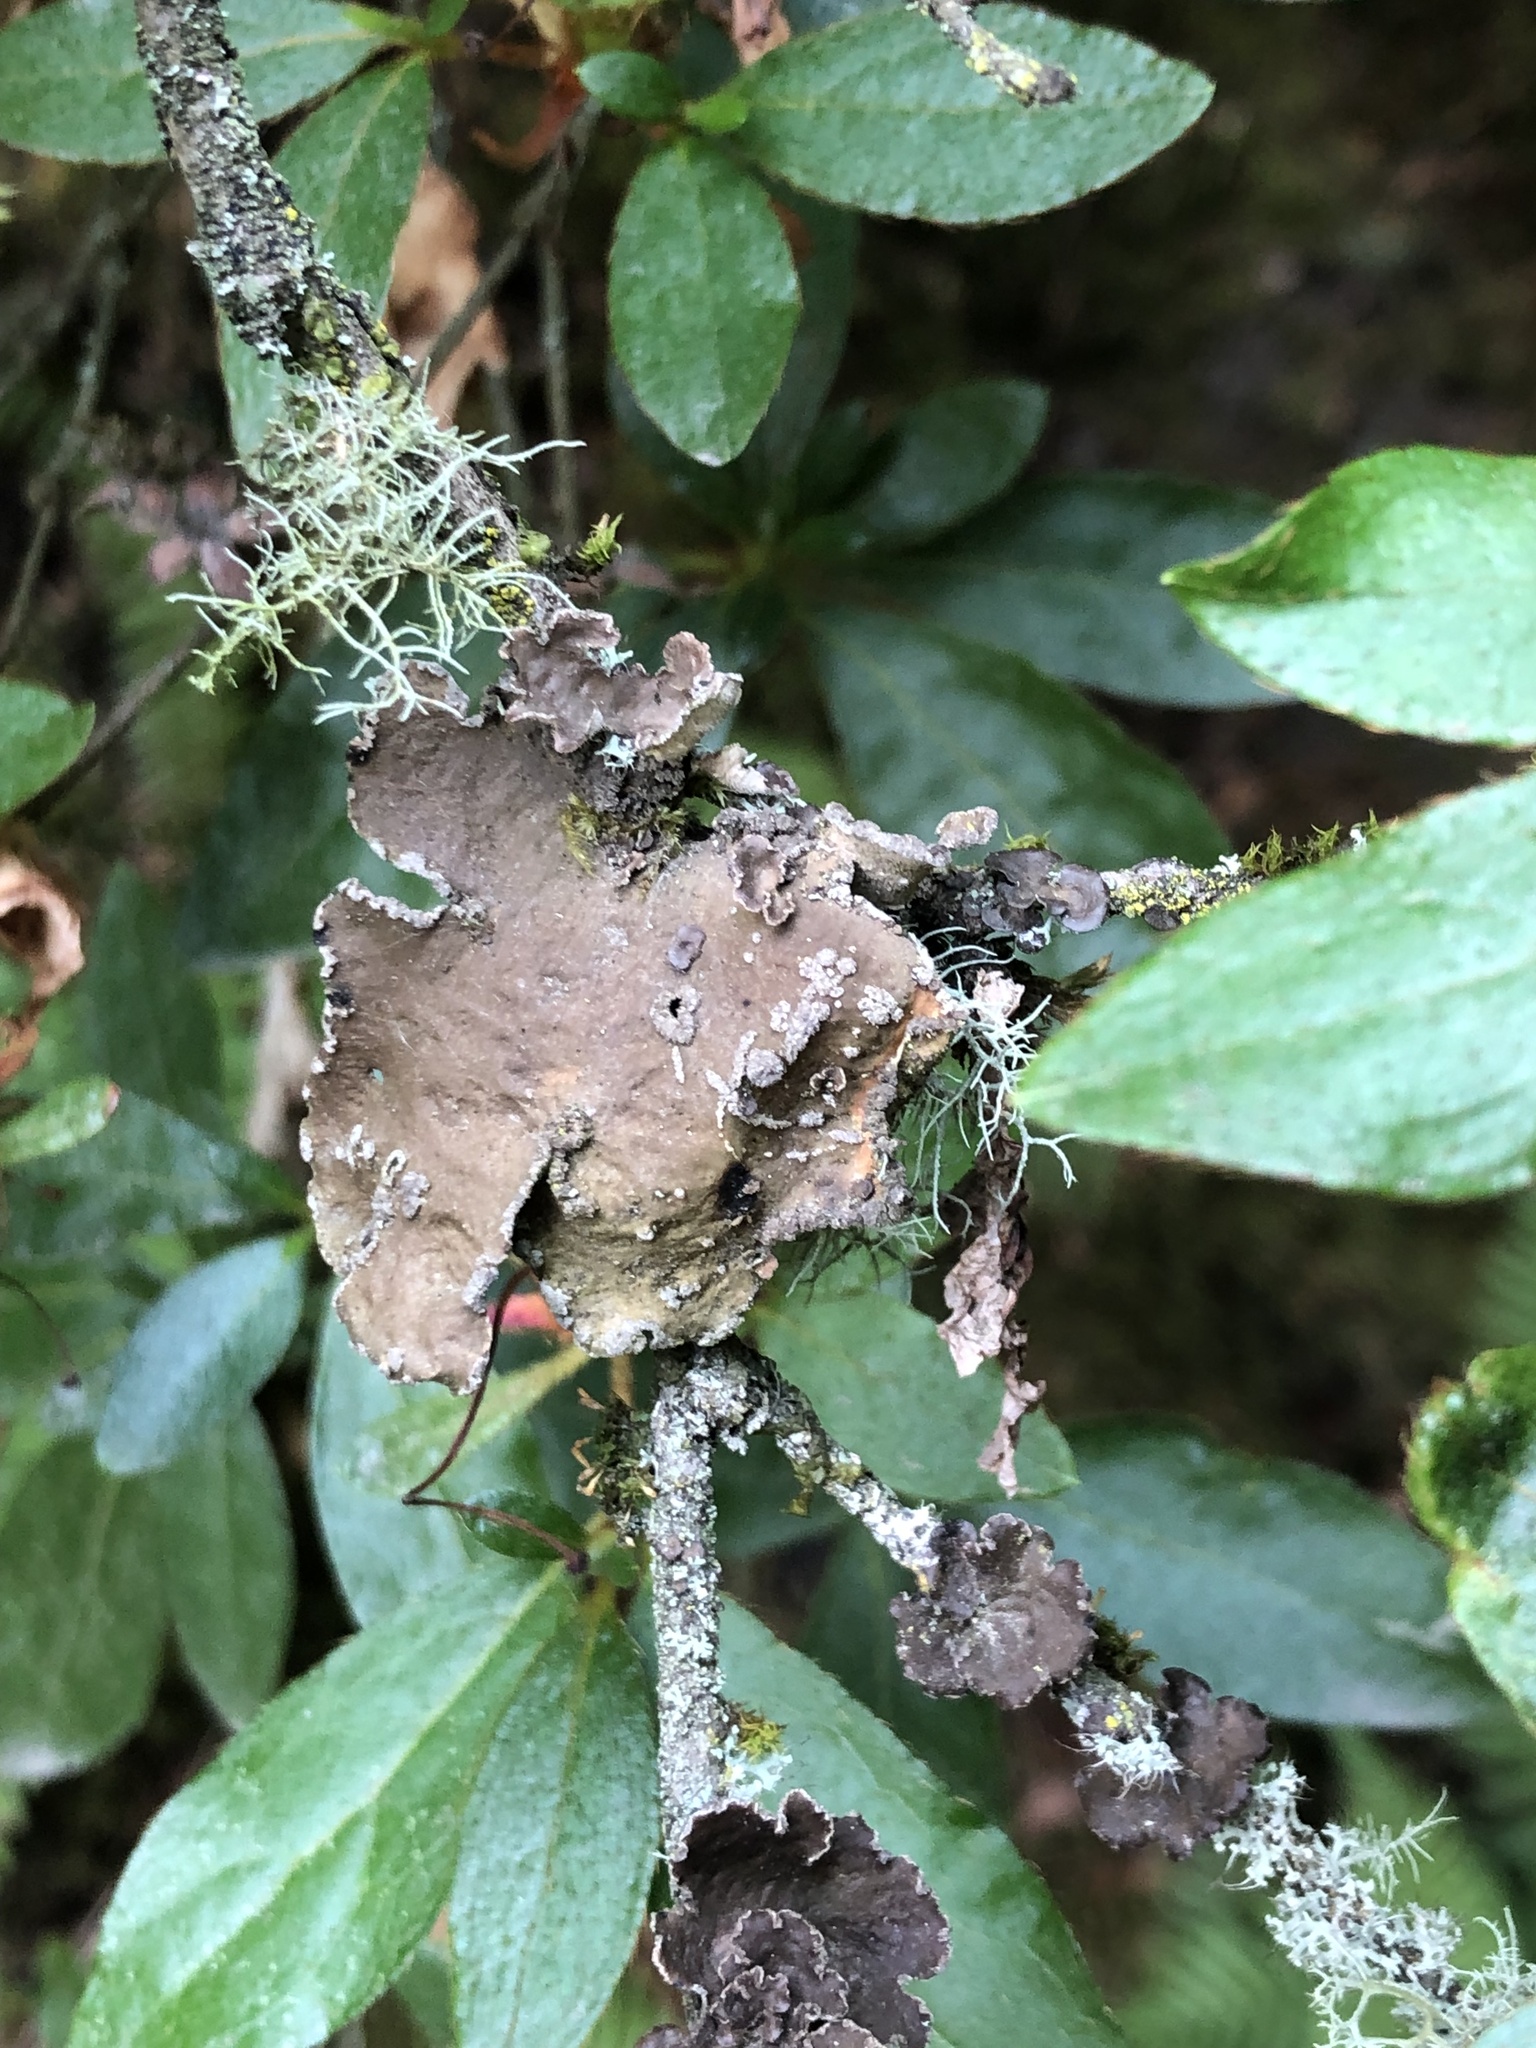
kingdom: Fungi
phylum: Ascomycota
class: Lecanoromycetes
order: Peltigerales
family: Lobariaceae
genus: Sticta
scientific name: Sticta limbata
